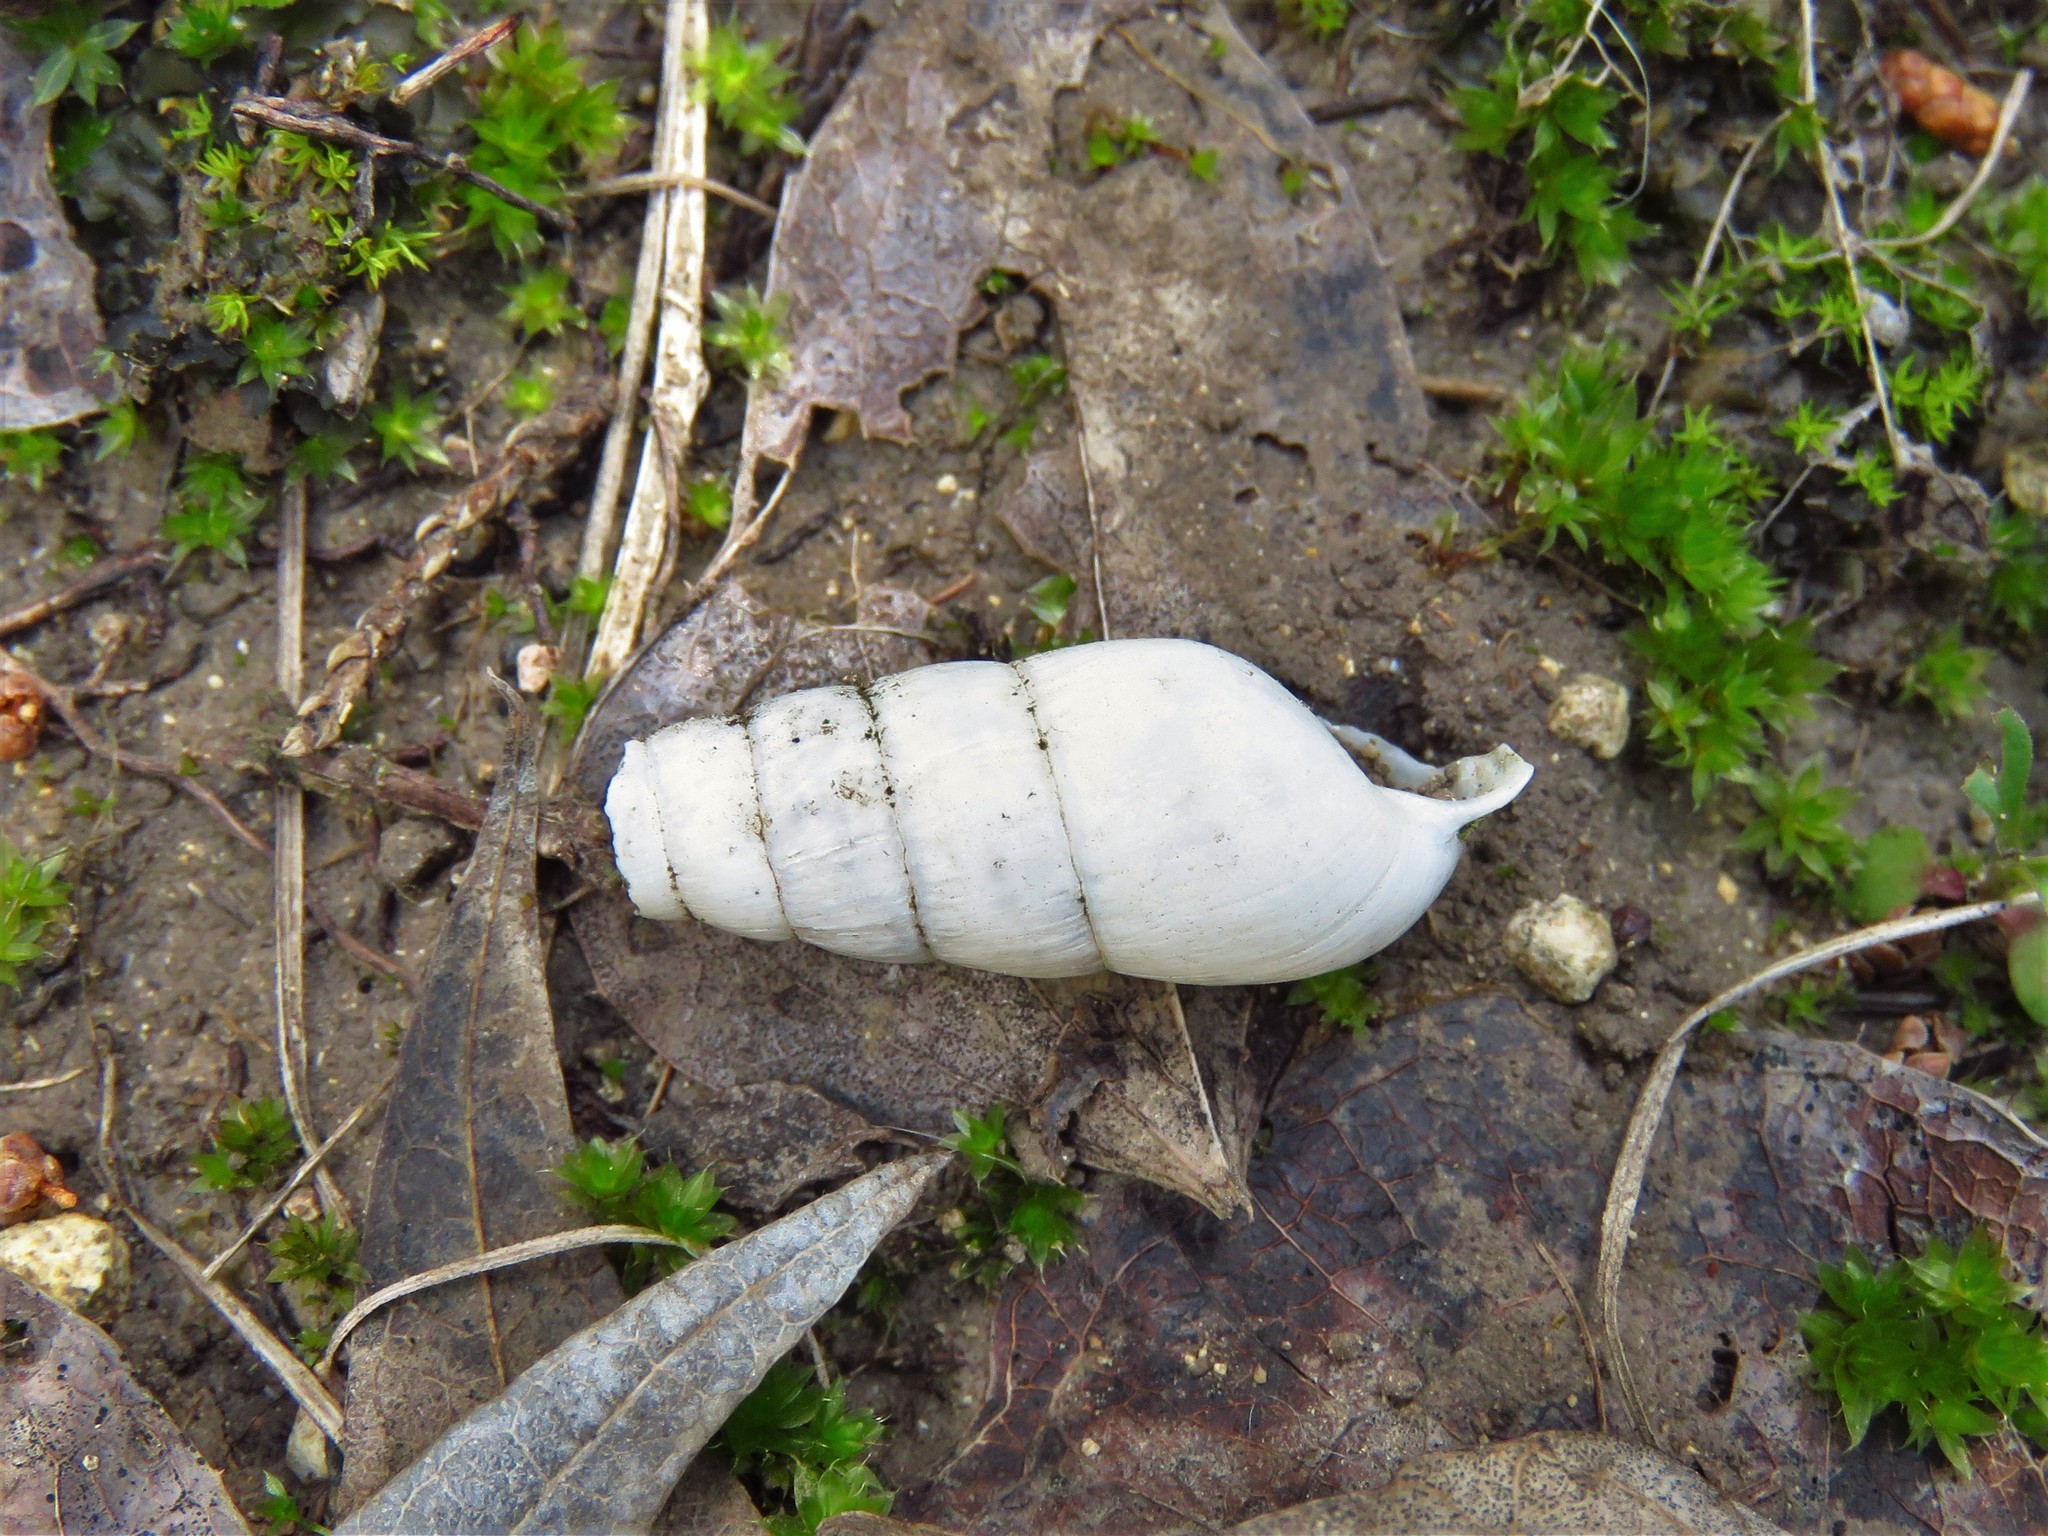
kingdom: Animalia
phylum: Mollusca
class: Gastropoda
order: Stylommatophora
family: Achatinidae
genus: Rumina
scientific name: Rumina decollata
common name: Decollate snail
